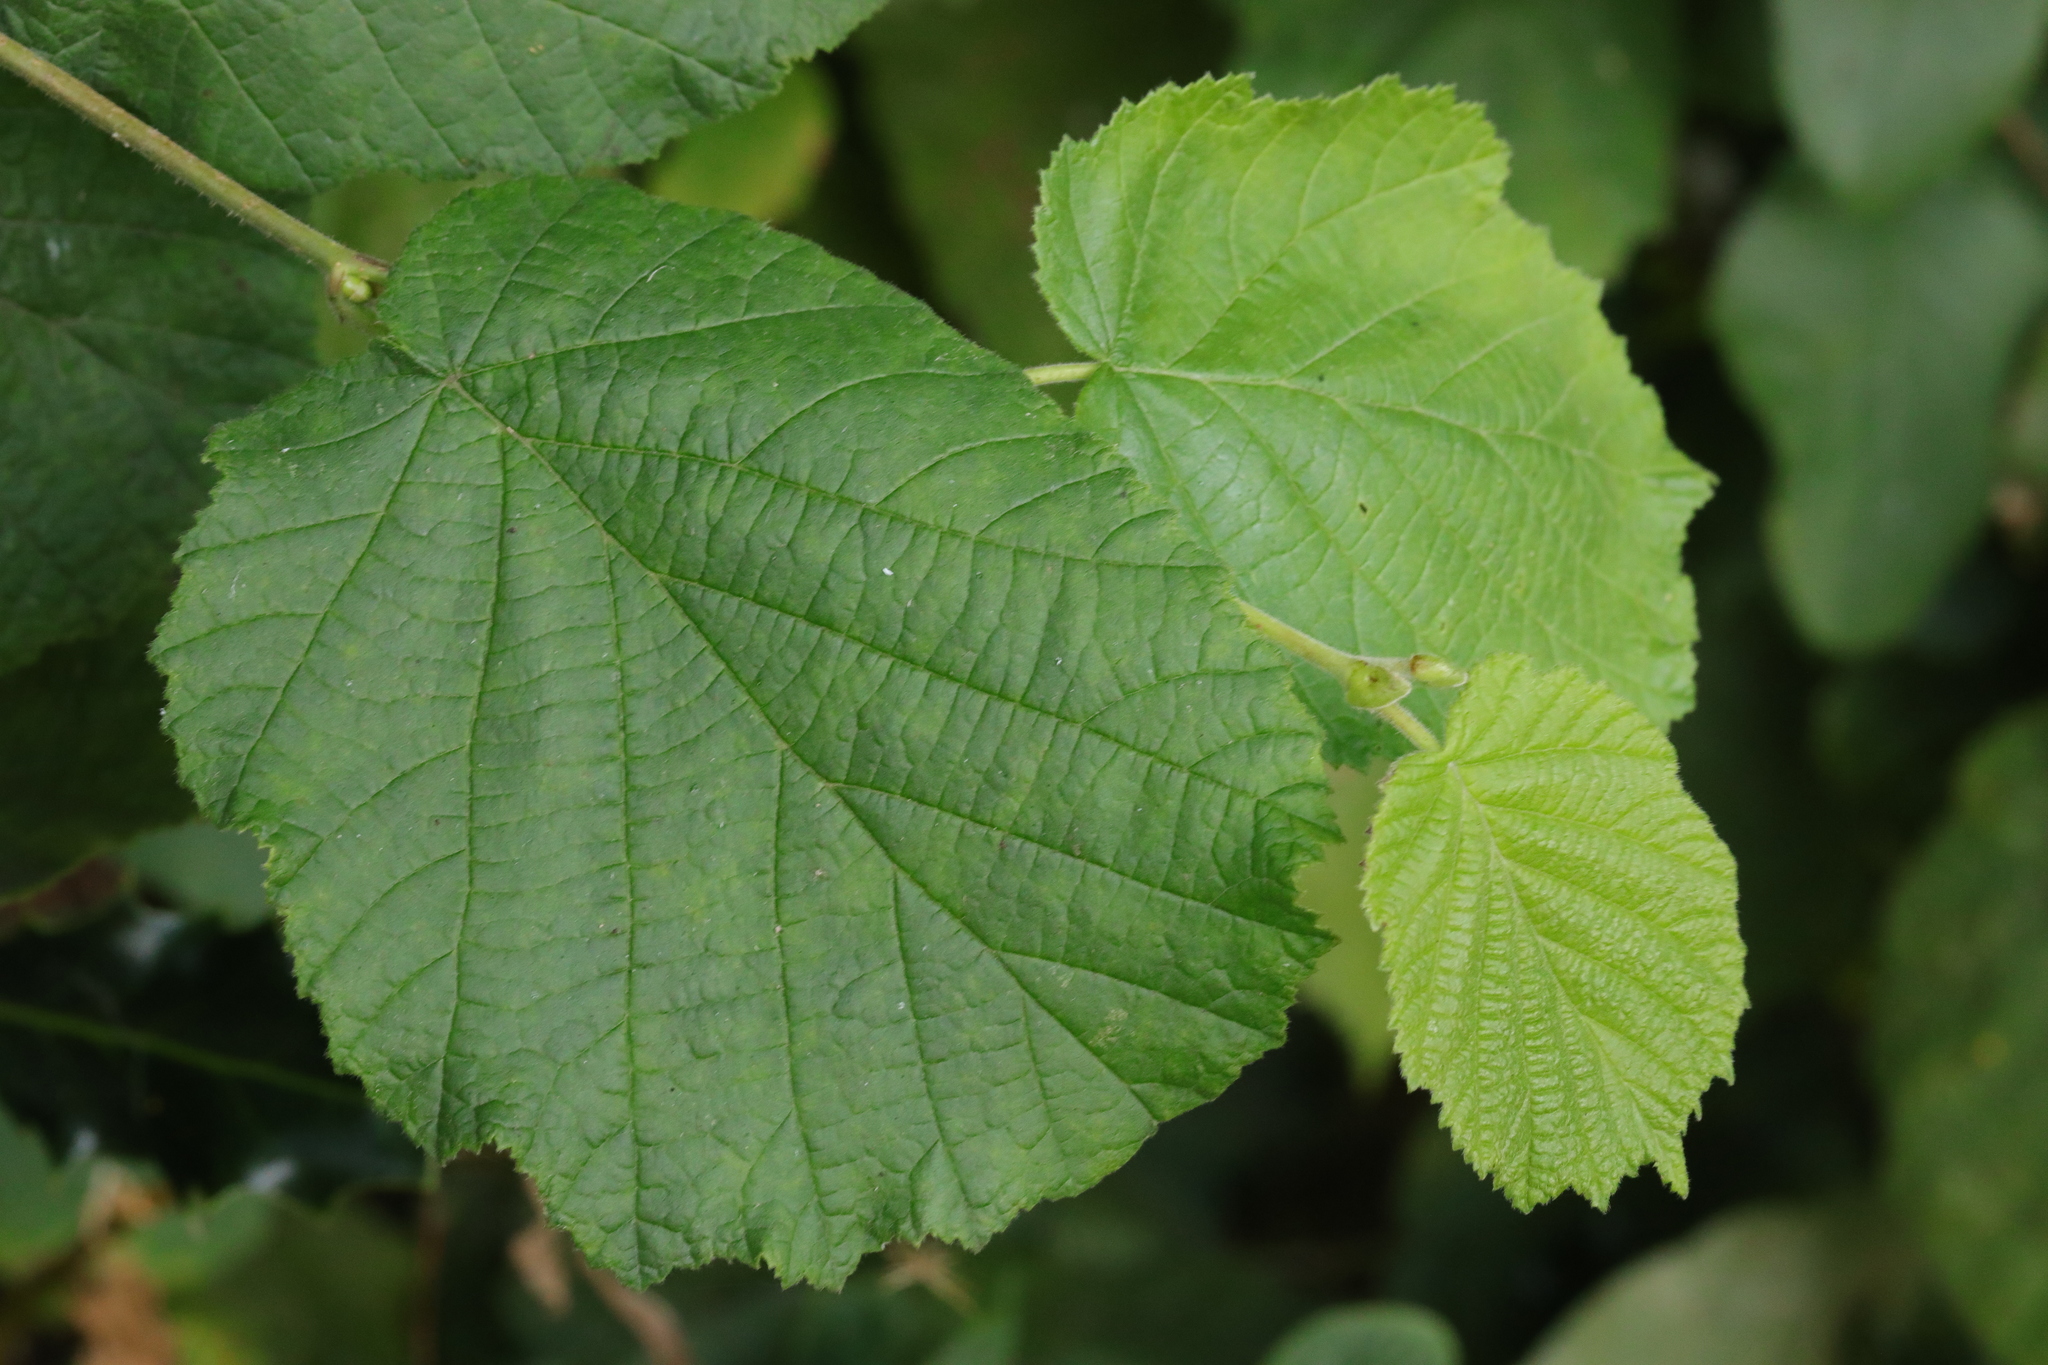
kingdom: Plantae
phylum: Tracheophyta
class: Magnoliopsida
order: Fagales
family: Betulaceae
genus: Corylus
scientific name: Corylus avellana
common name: European hazel
